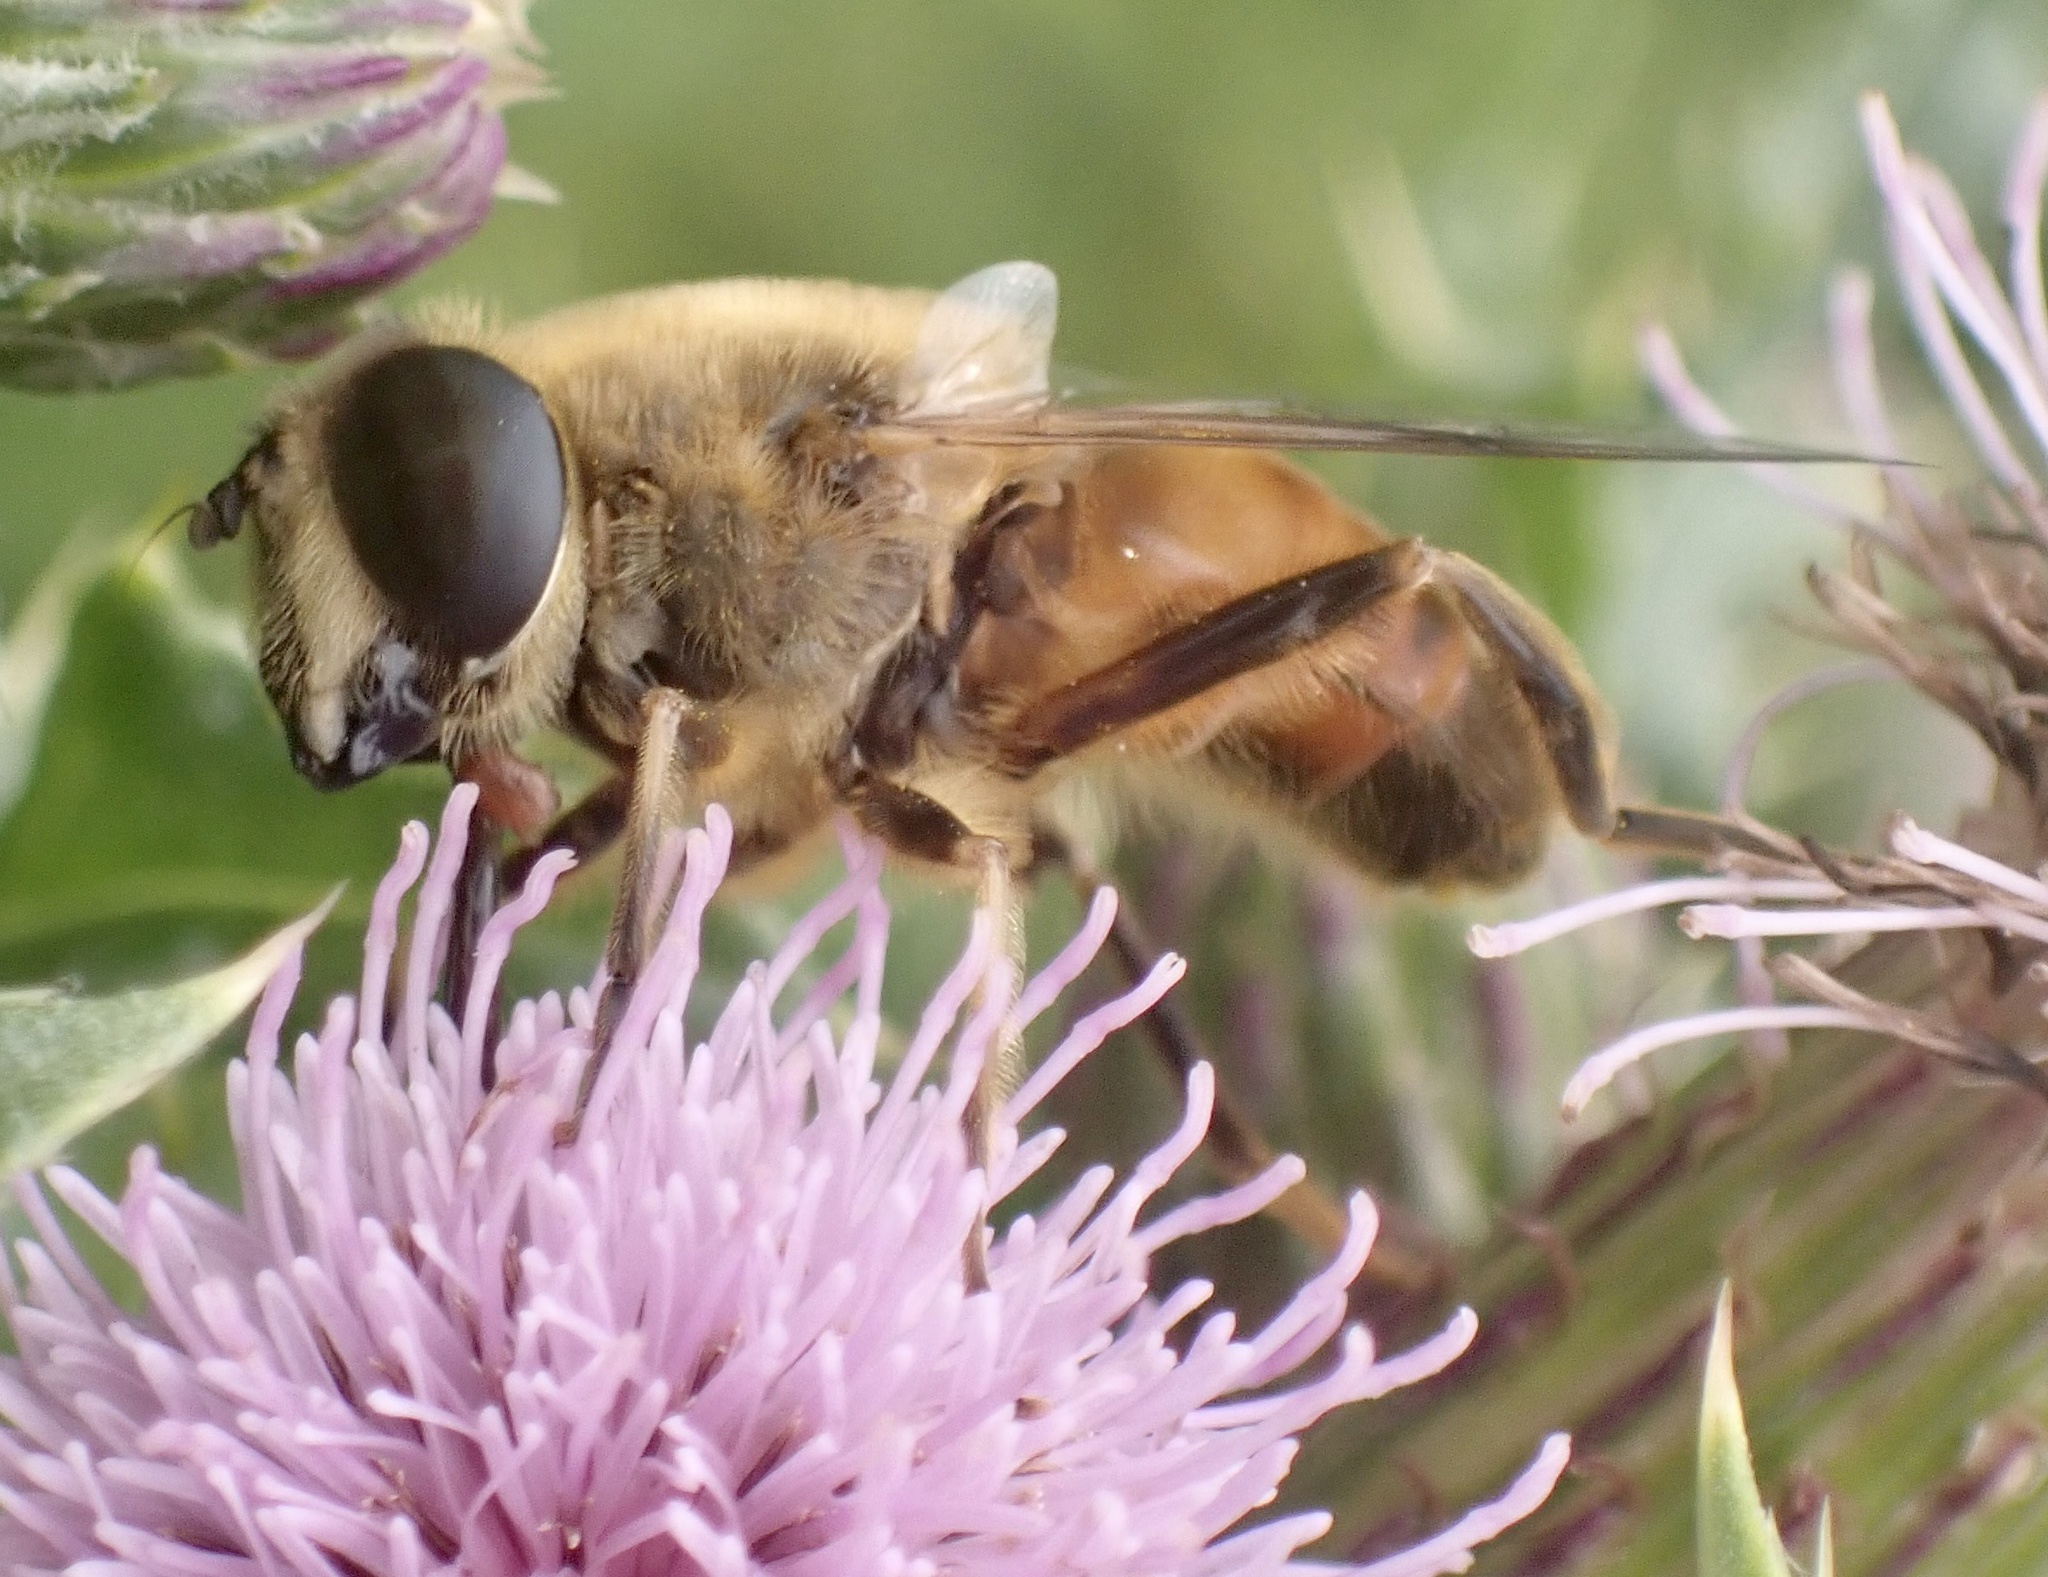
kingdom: Animalia
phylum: Arthropoda
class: Insecta
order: Diptera
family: Syrphidae
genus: Eristalis
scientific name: Eristalis tenax
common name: Drone fly
